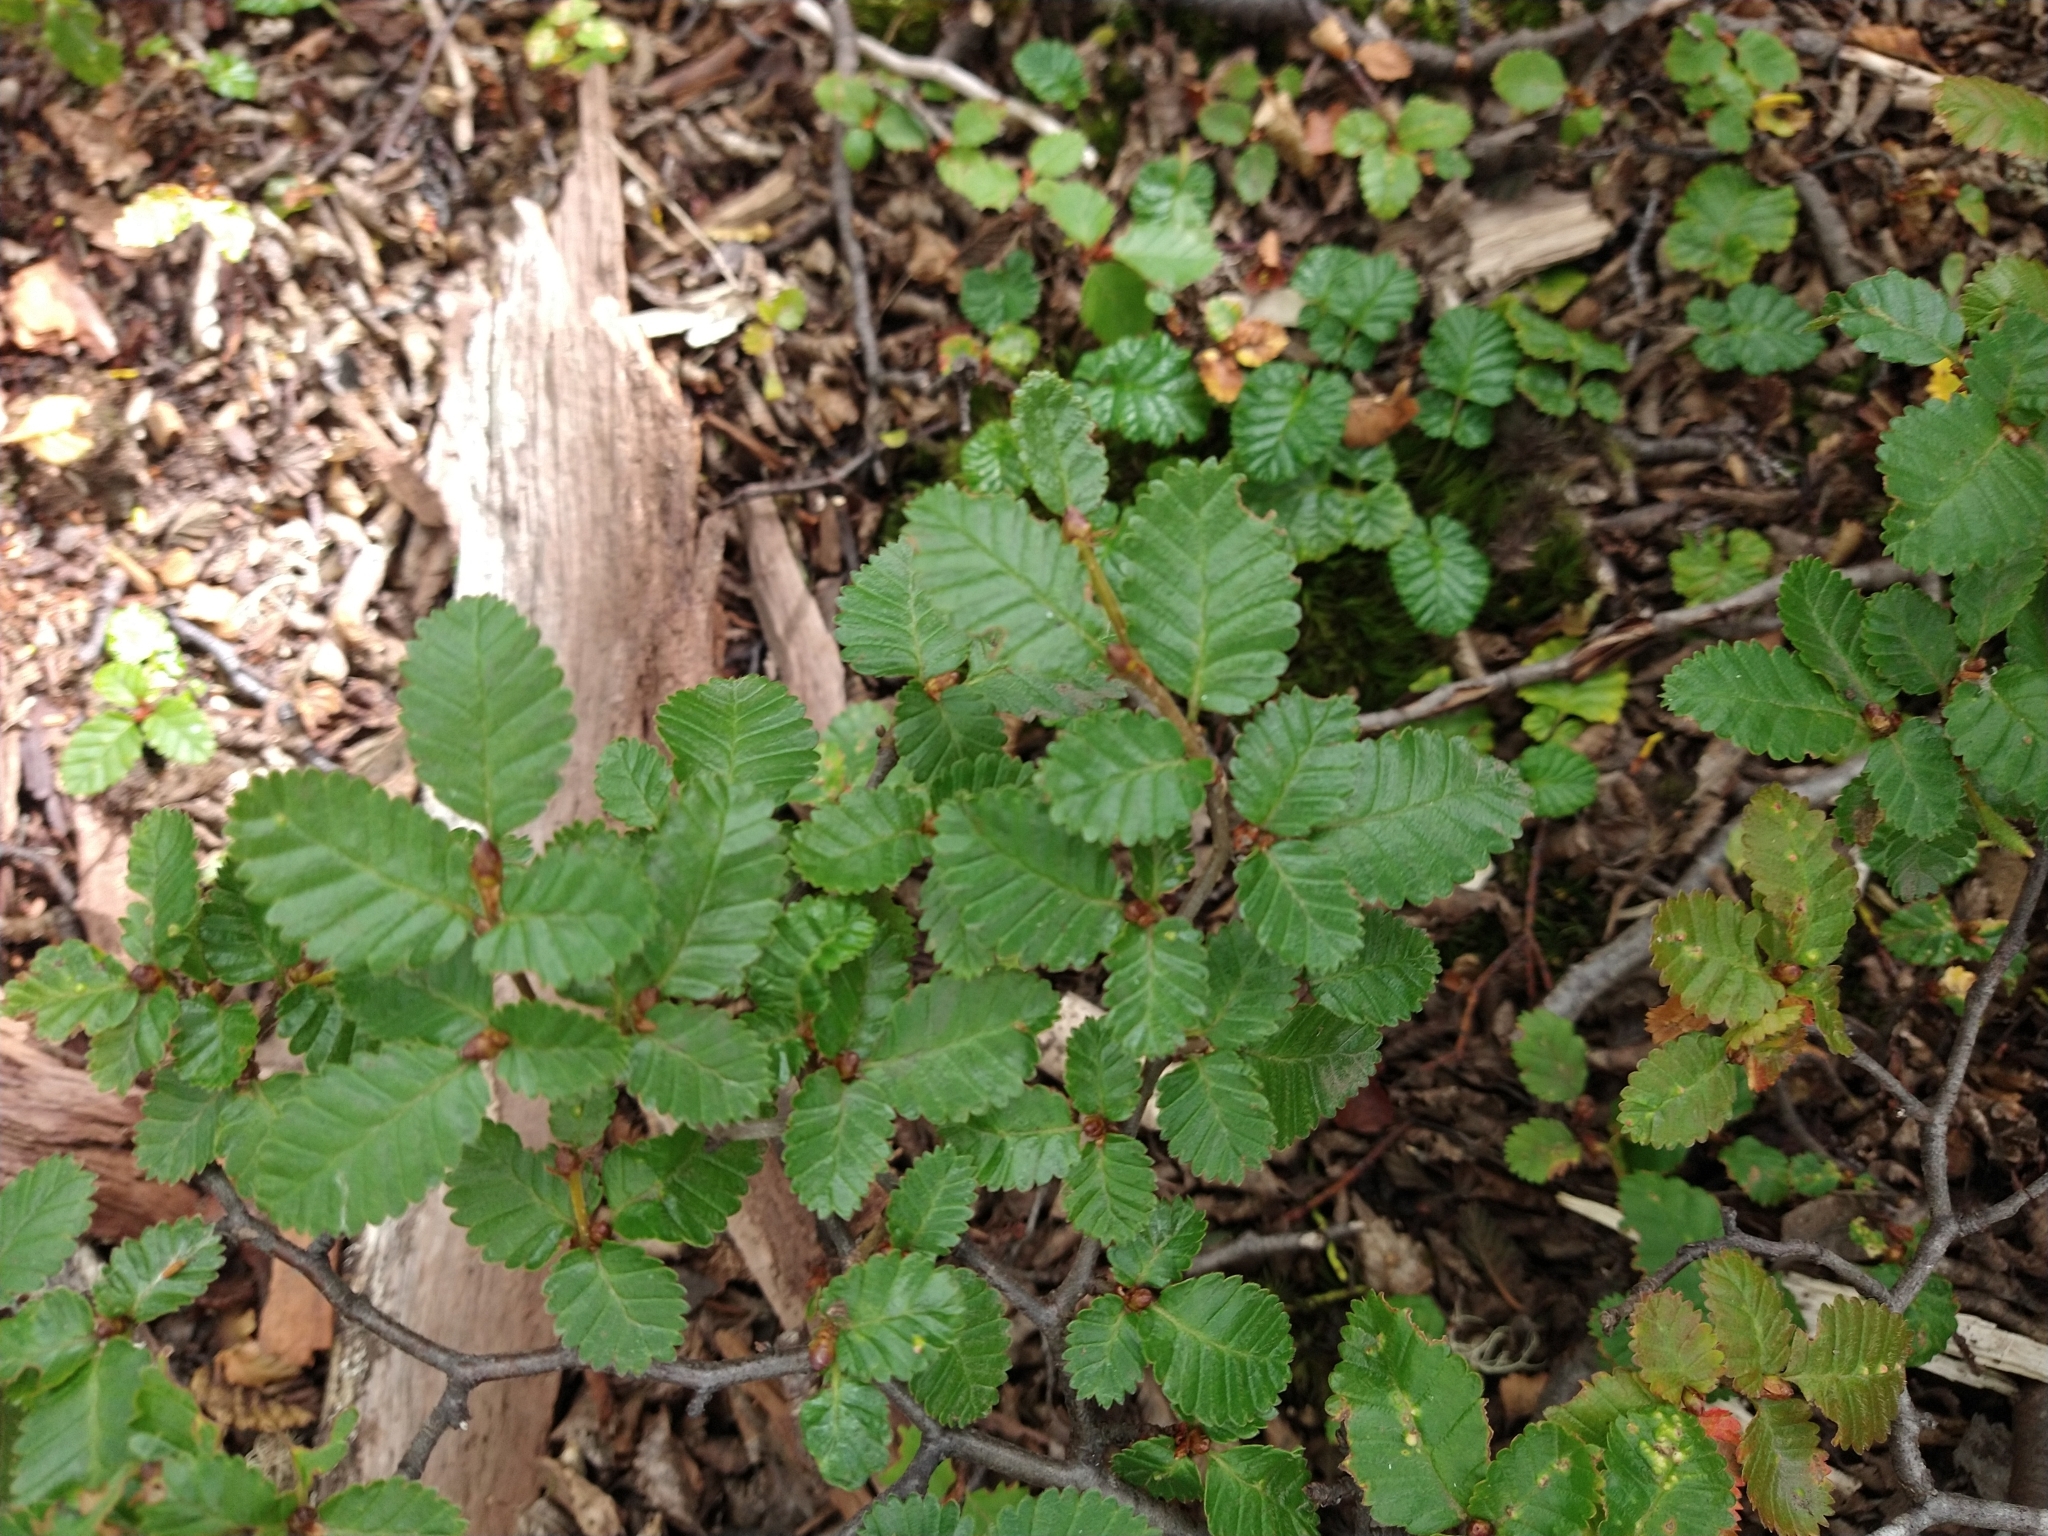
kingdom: Plantae
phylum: Tracheophyta
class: Magnoliopsida
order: Fagales
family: Nothofagaceae
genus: Nothofagus
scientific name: Nothofagus pumilio
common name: Lenga beech
